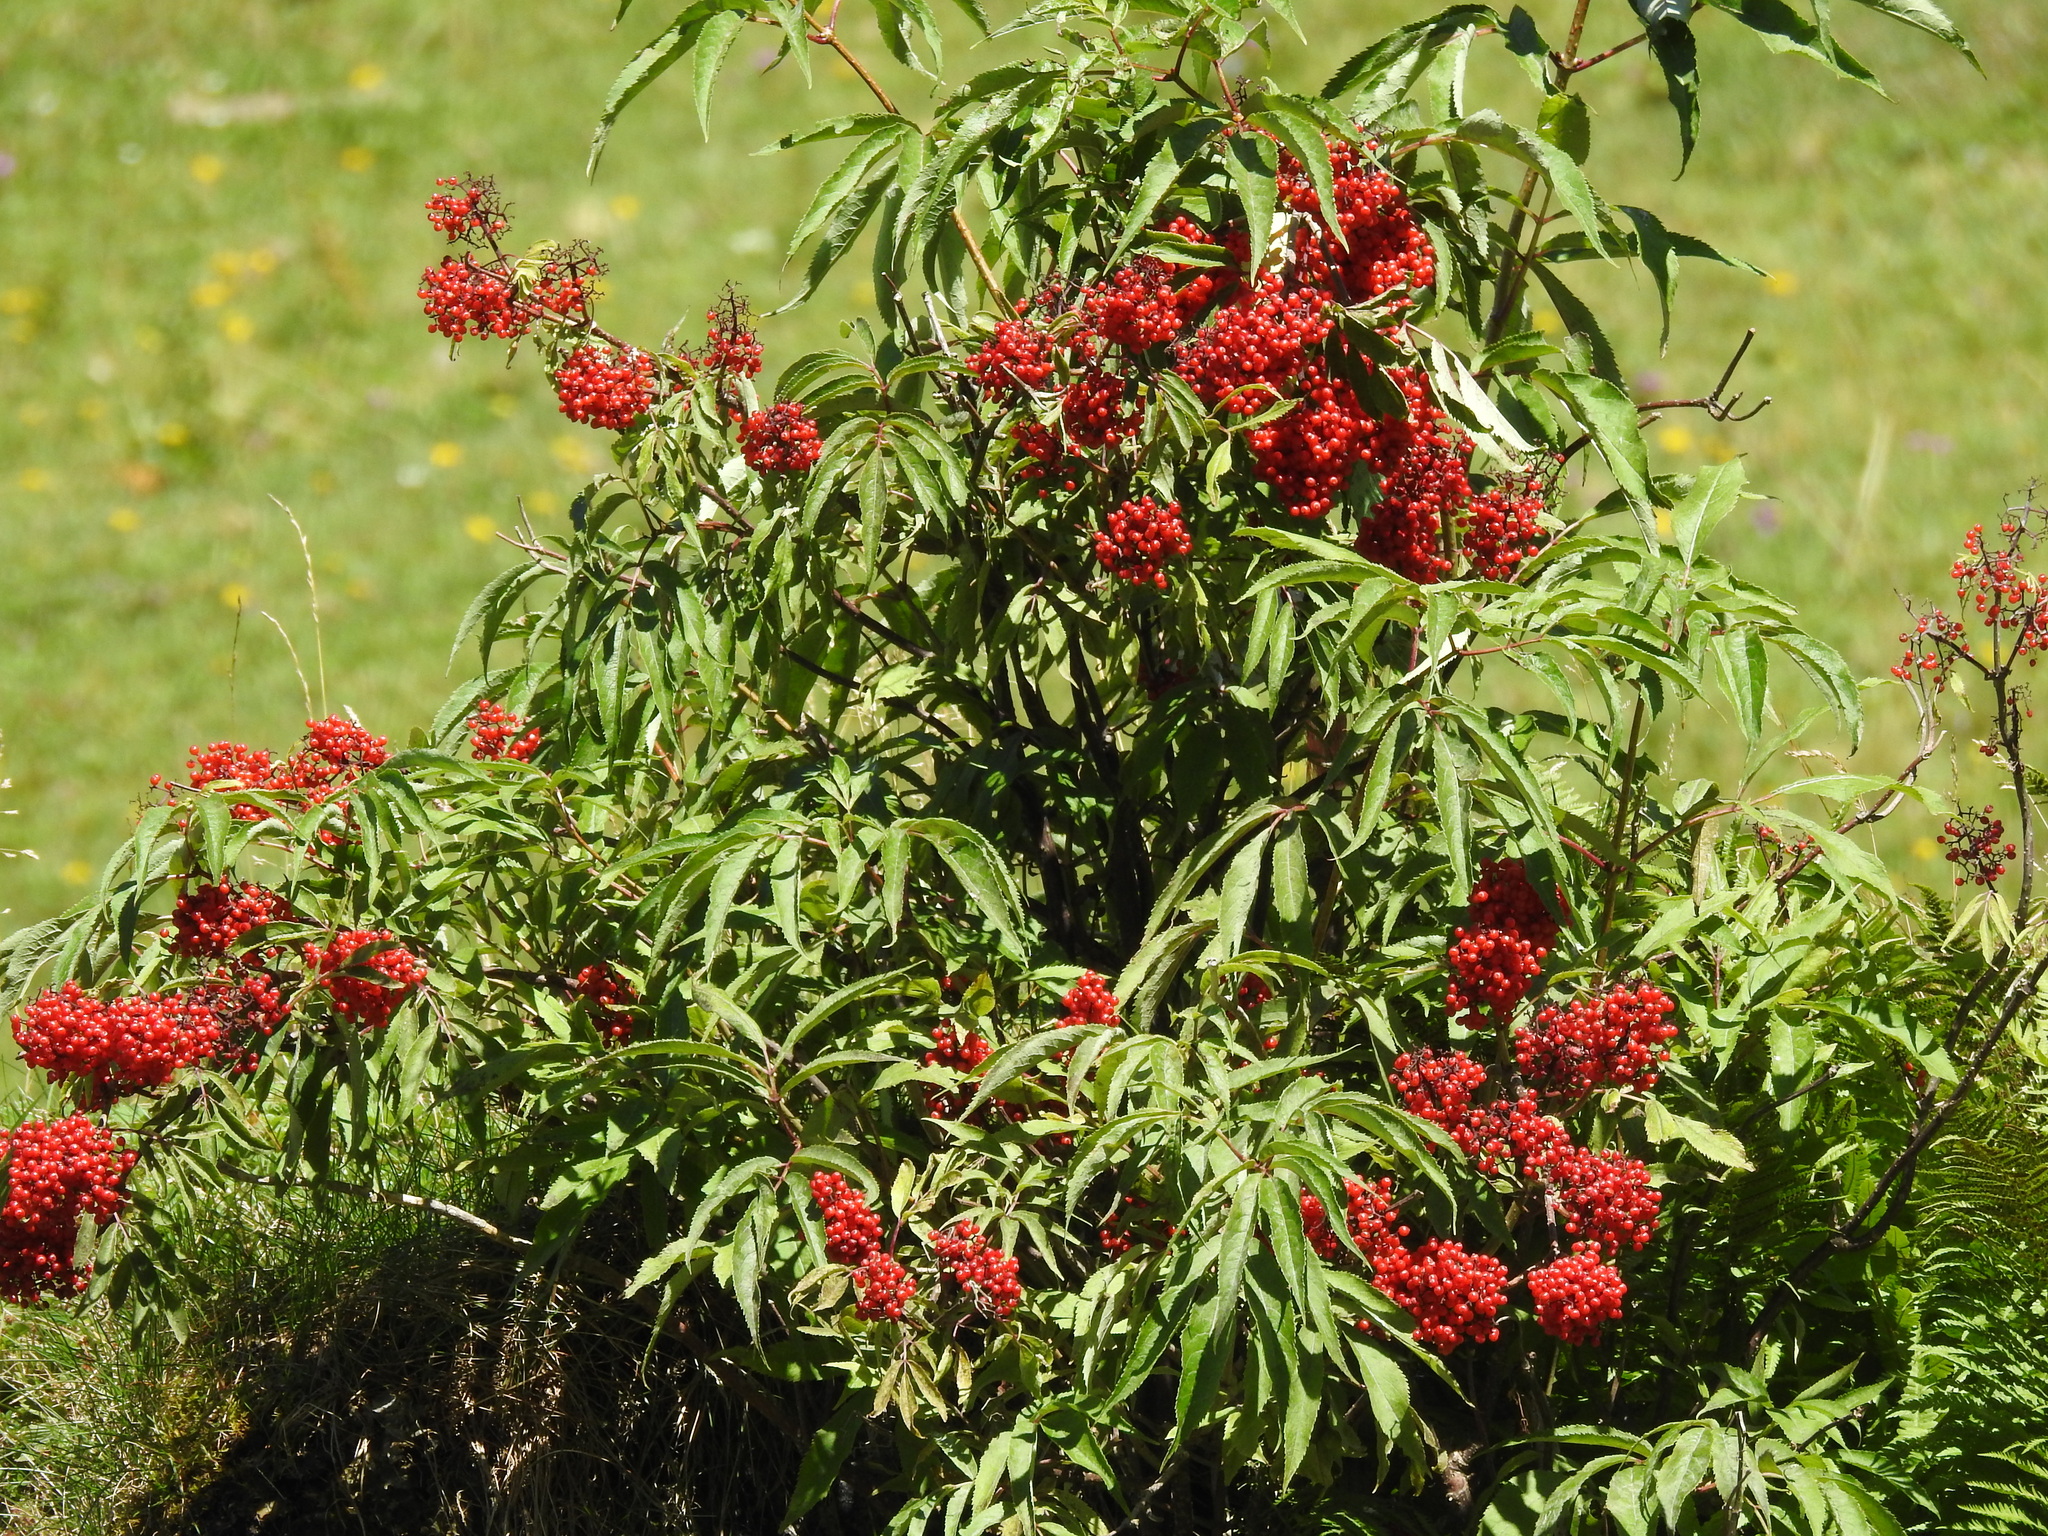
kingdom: Plantae
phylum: Tracheophyta
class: Magnoliopsida
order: Dipsacales
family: Viburnaceae
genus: Sambucus
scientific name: Sambucus racemosa
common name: Red-berried elder
